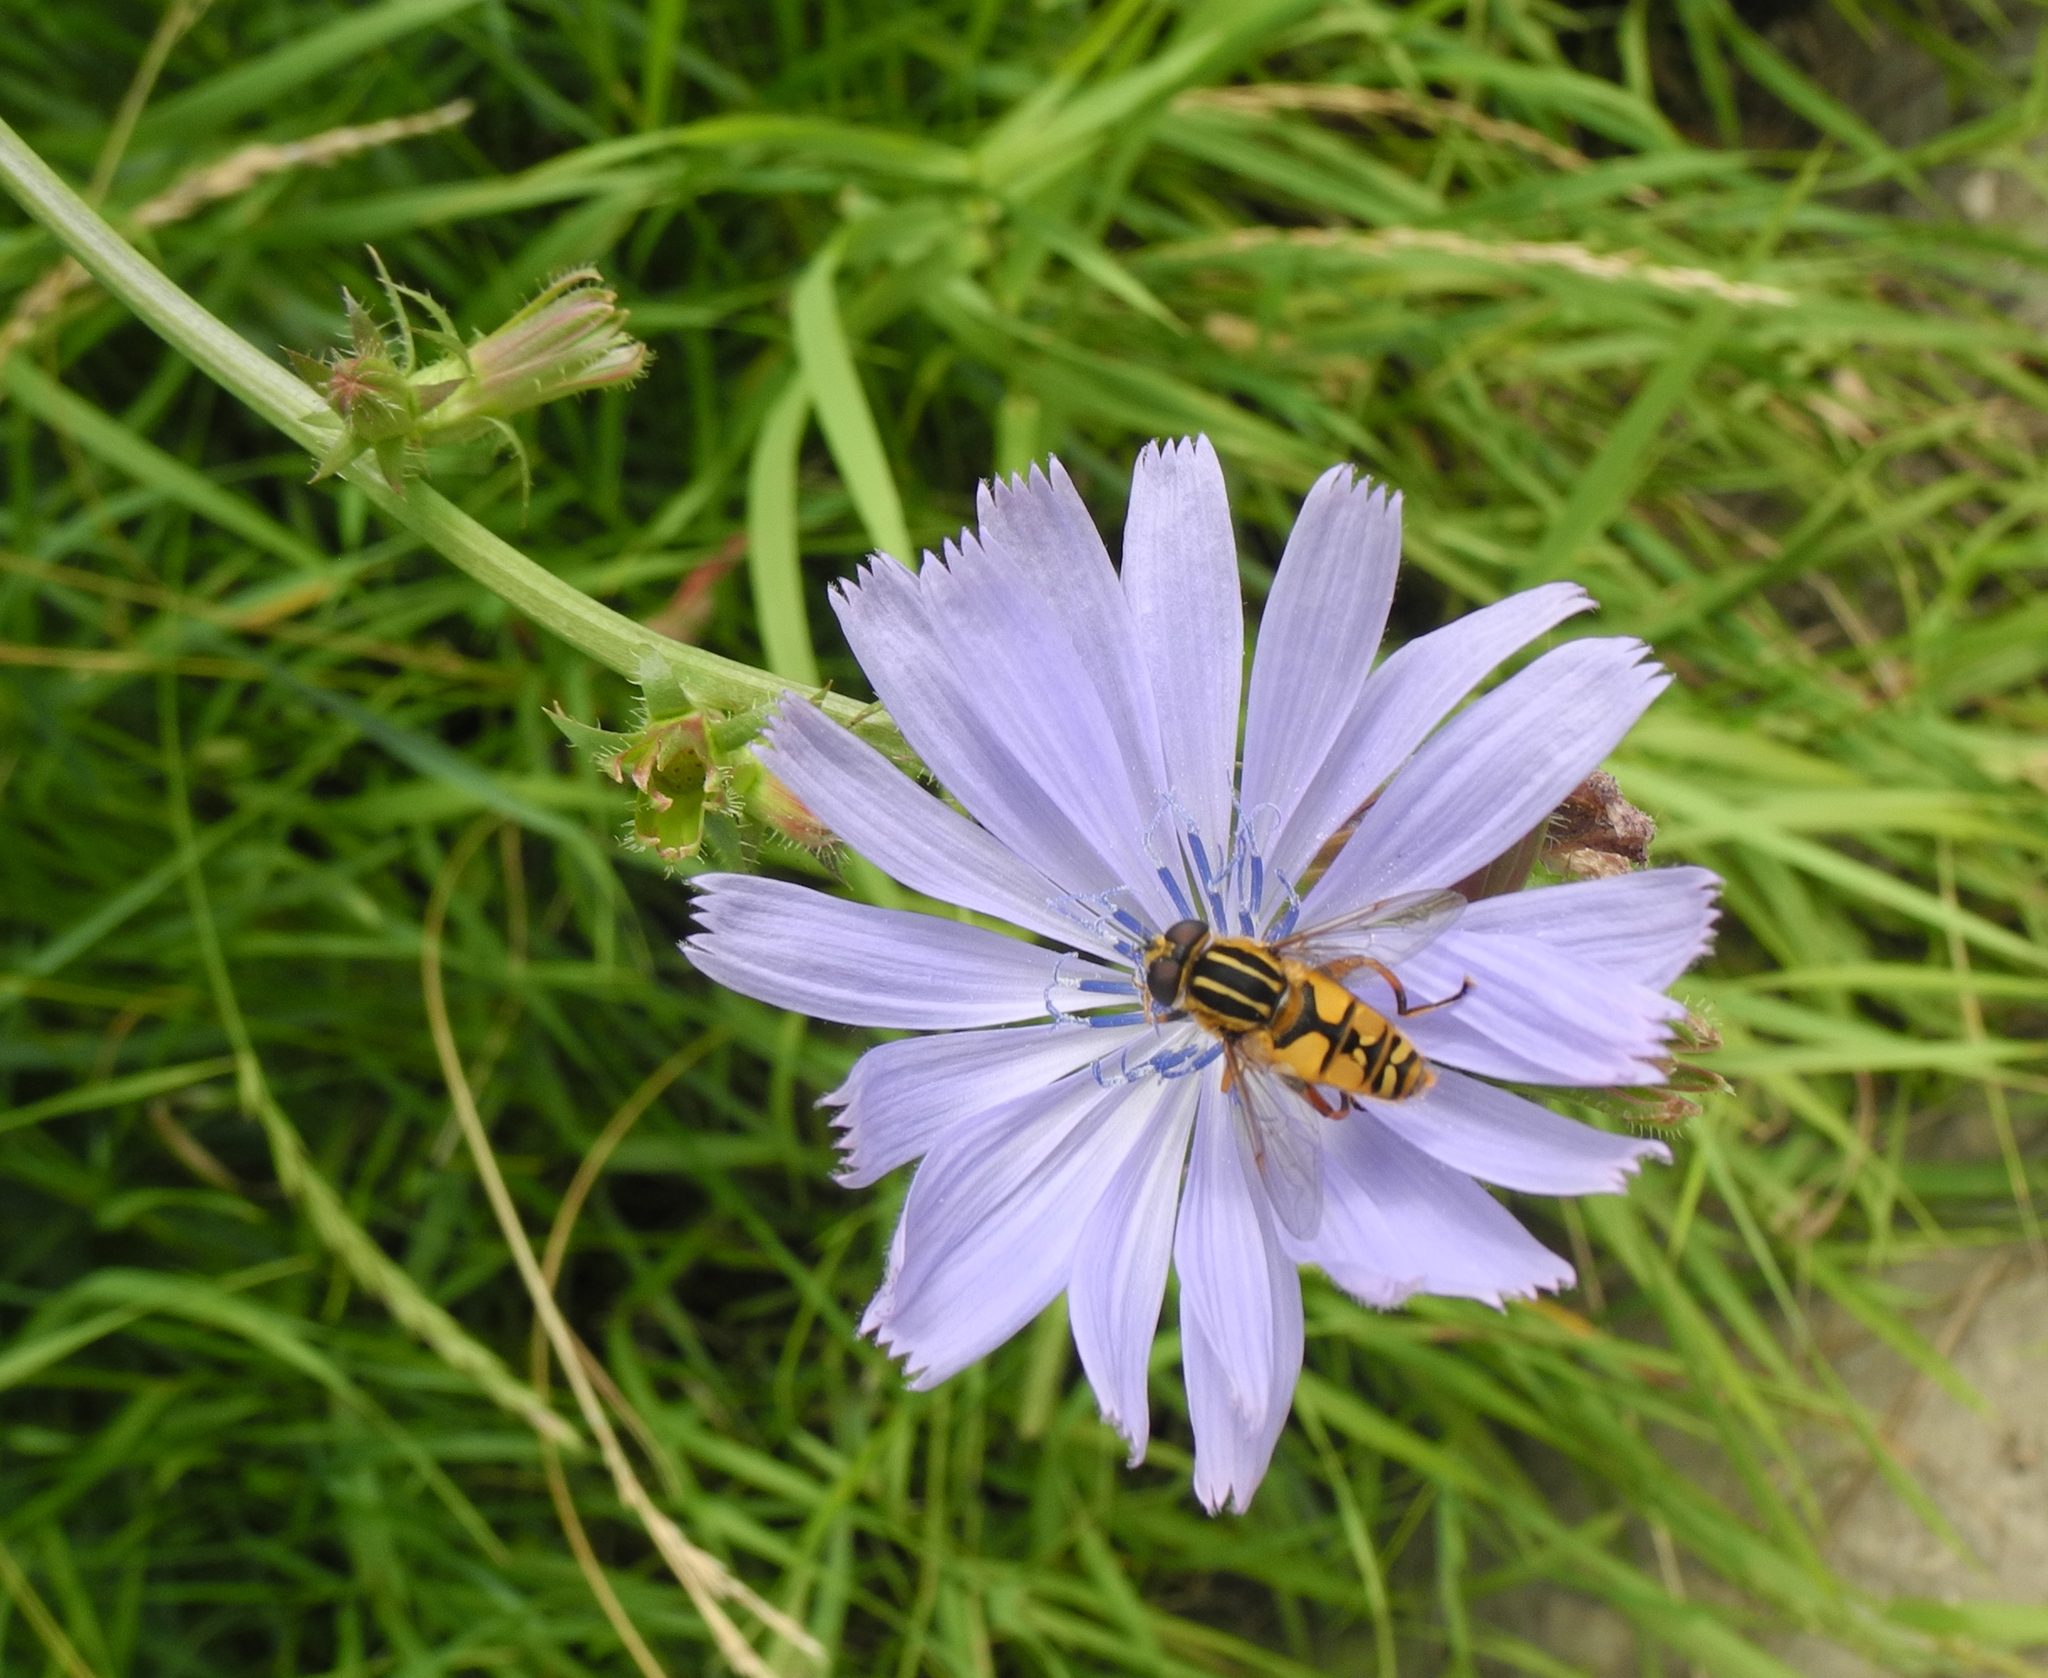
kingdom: Animalia
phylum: Arthropoda
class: Insecta
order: Diptera
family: Syrphidae
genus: Helophilus
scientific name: Helophilus pendulus
